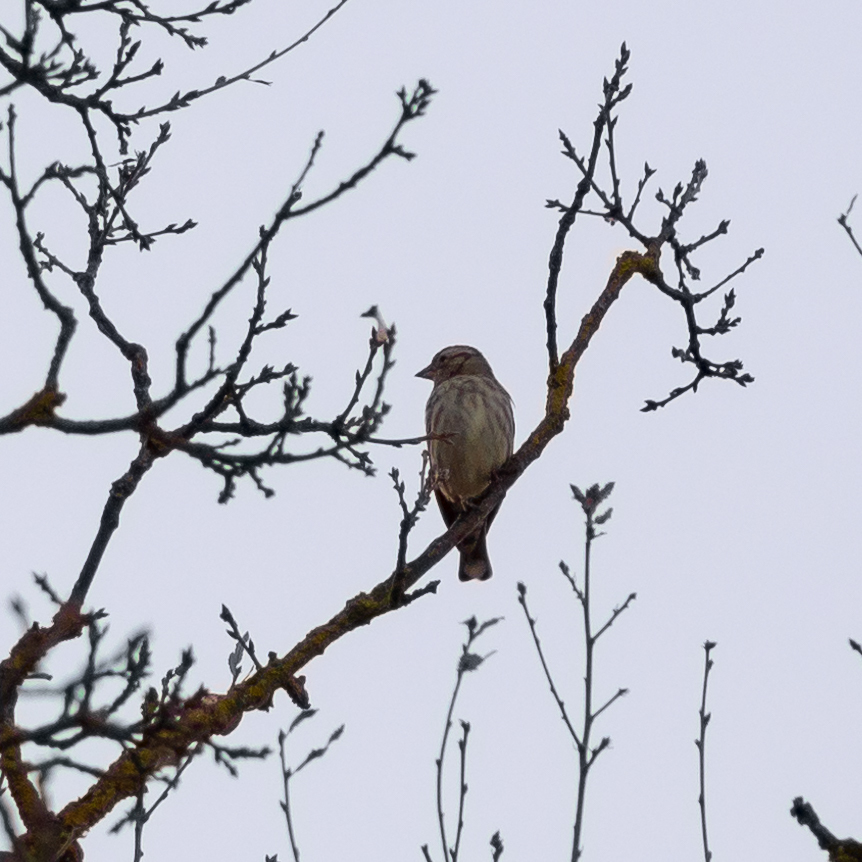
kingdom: Animalia
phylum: Chordata
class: Aves
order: Passeriformes
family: Passeridae
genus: Petronia
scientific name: Petronia petronia
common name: Rock sparrow
